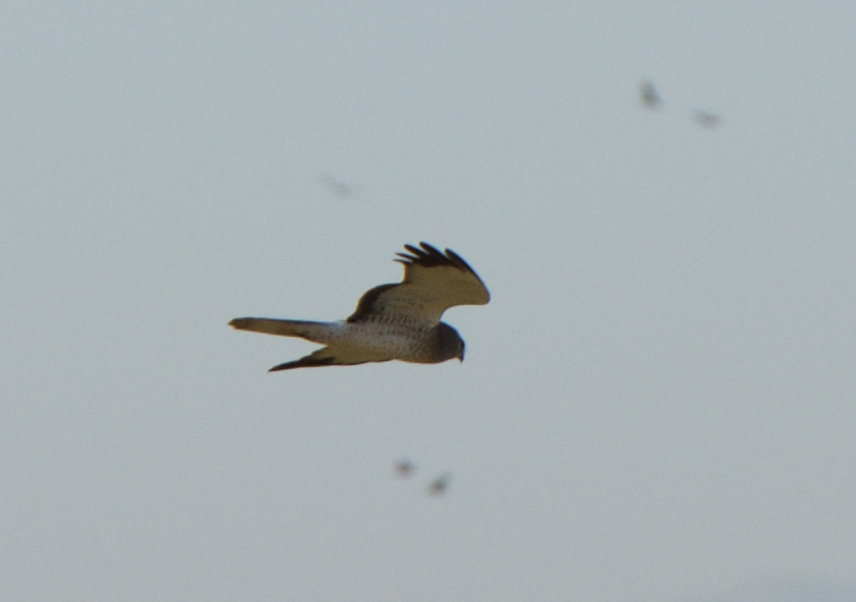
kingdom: Animalia
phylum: Chordata
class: Aves
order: Accipitriformes
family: Accipitridae
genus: Circus
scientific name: Circus cyaneus
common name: Hen harrier
